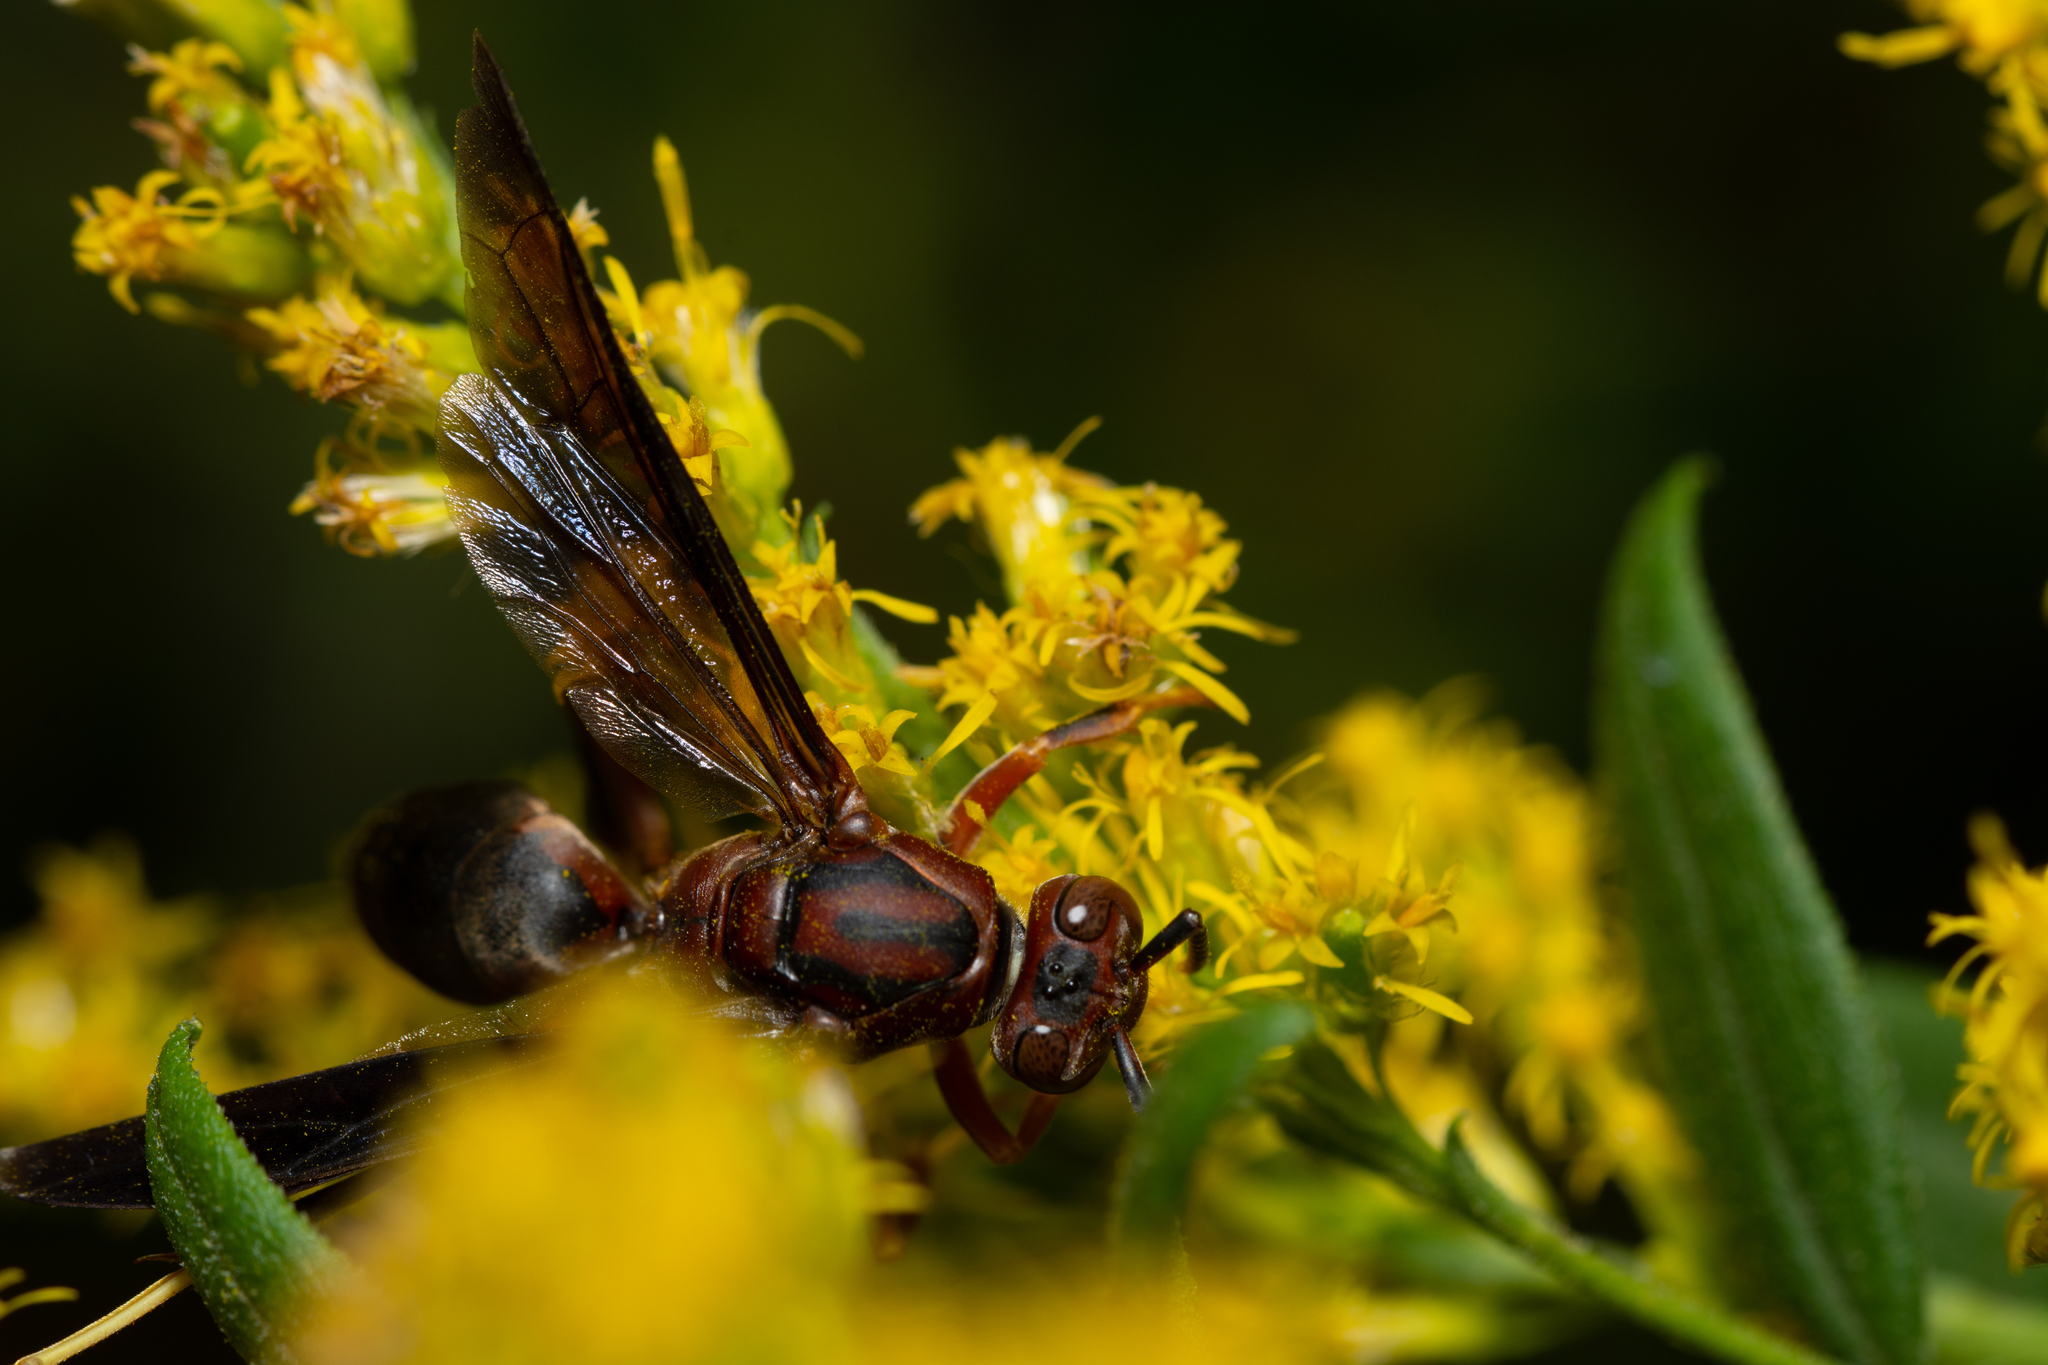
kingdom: Animalia
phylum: Arthropoda
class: Insecta
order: Hymenoptera
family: Eumenidae
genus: Polistes
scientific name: Polistes metricus
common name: Metric paper wasp
